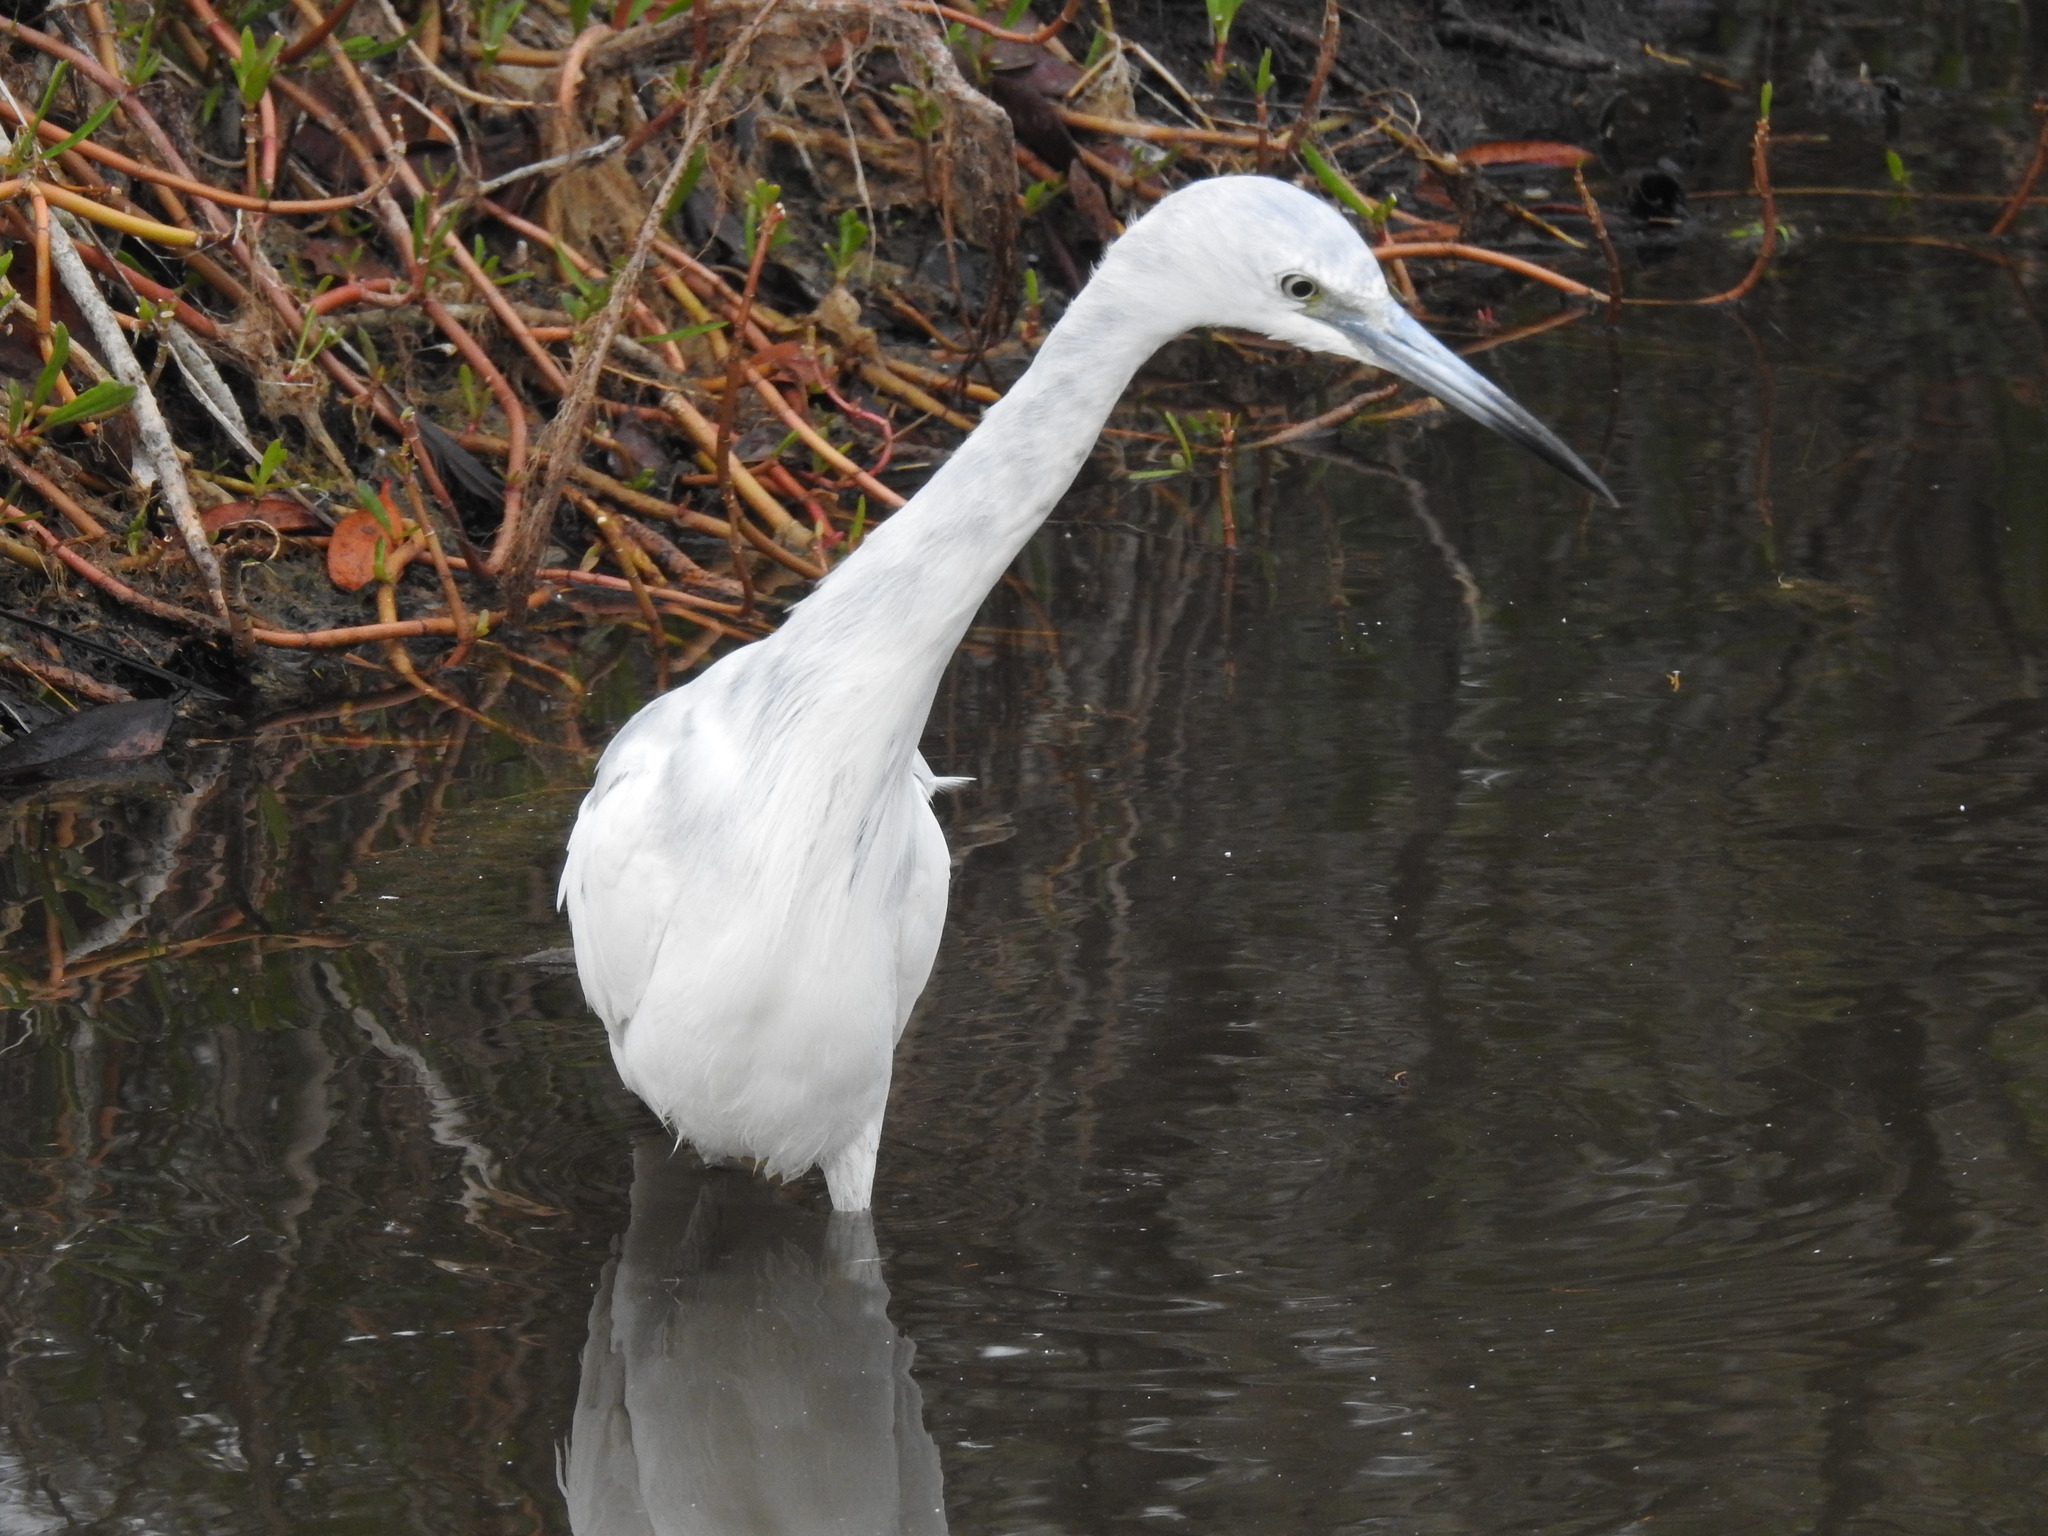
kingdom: Animalia
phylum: Chordata
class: Aves
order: Pelecaniformes
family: Ardeidae
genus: Egretta
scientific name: Egretta caerulea
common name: Little blue heron
